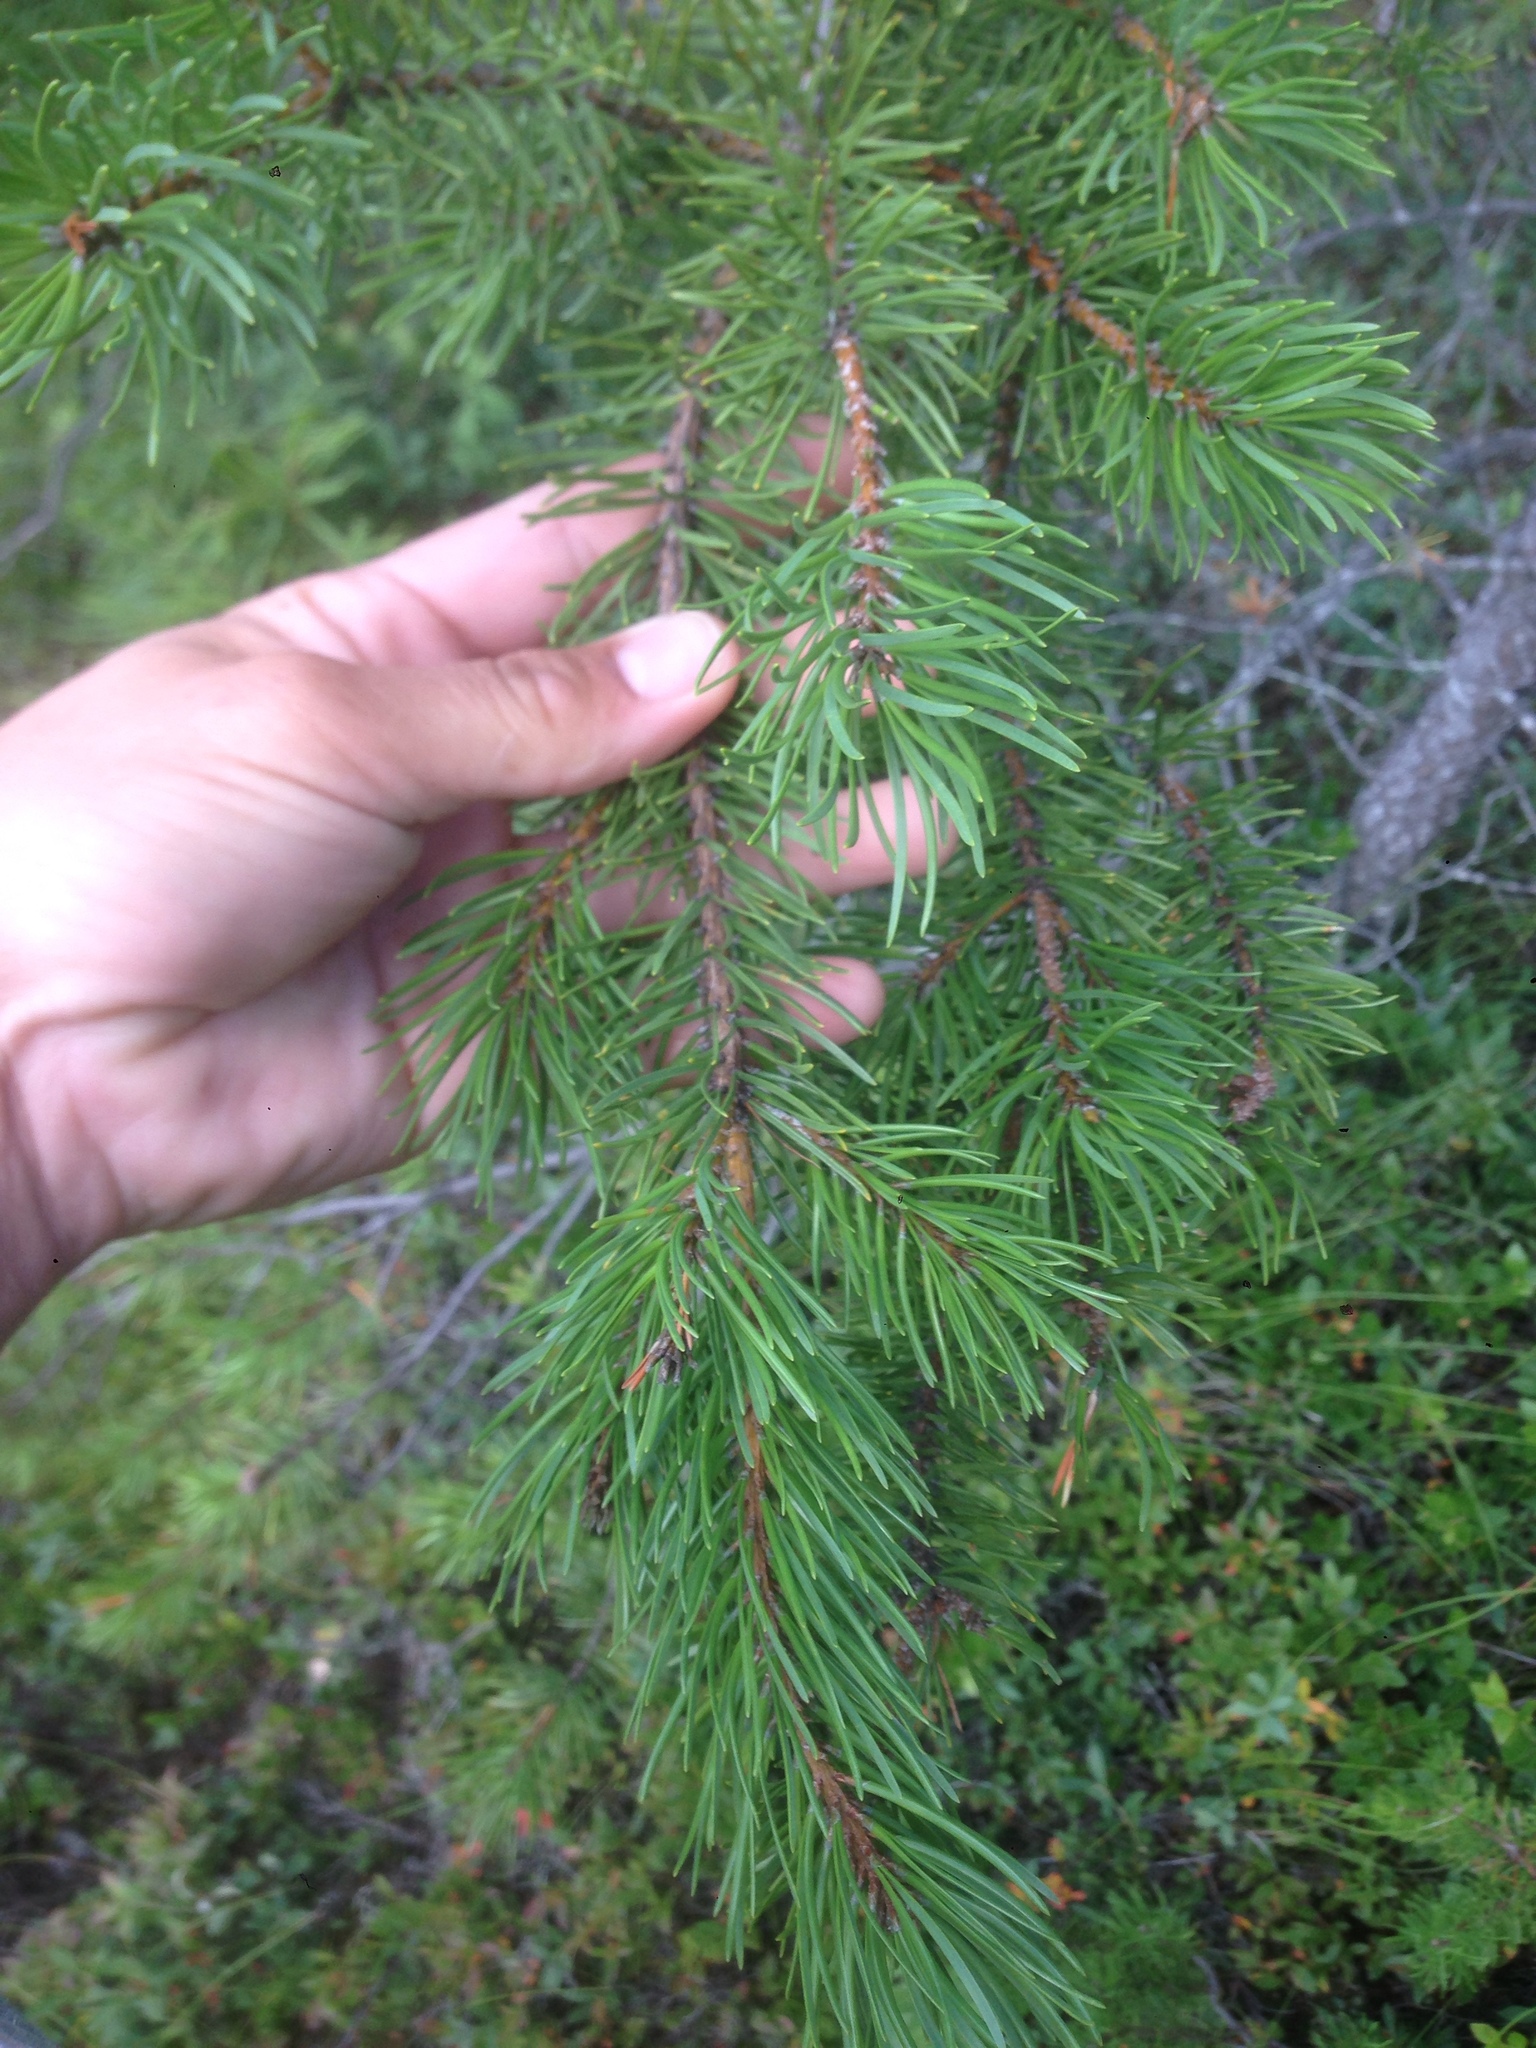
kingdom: Plantae
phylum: Tracheophyta
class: Pinopsida
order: Pinales
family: Pinaceae
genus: Pinus
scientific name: Pinus banksiana
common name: Jack pine
